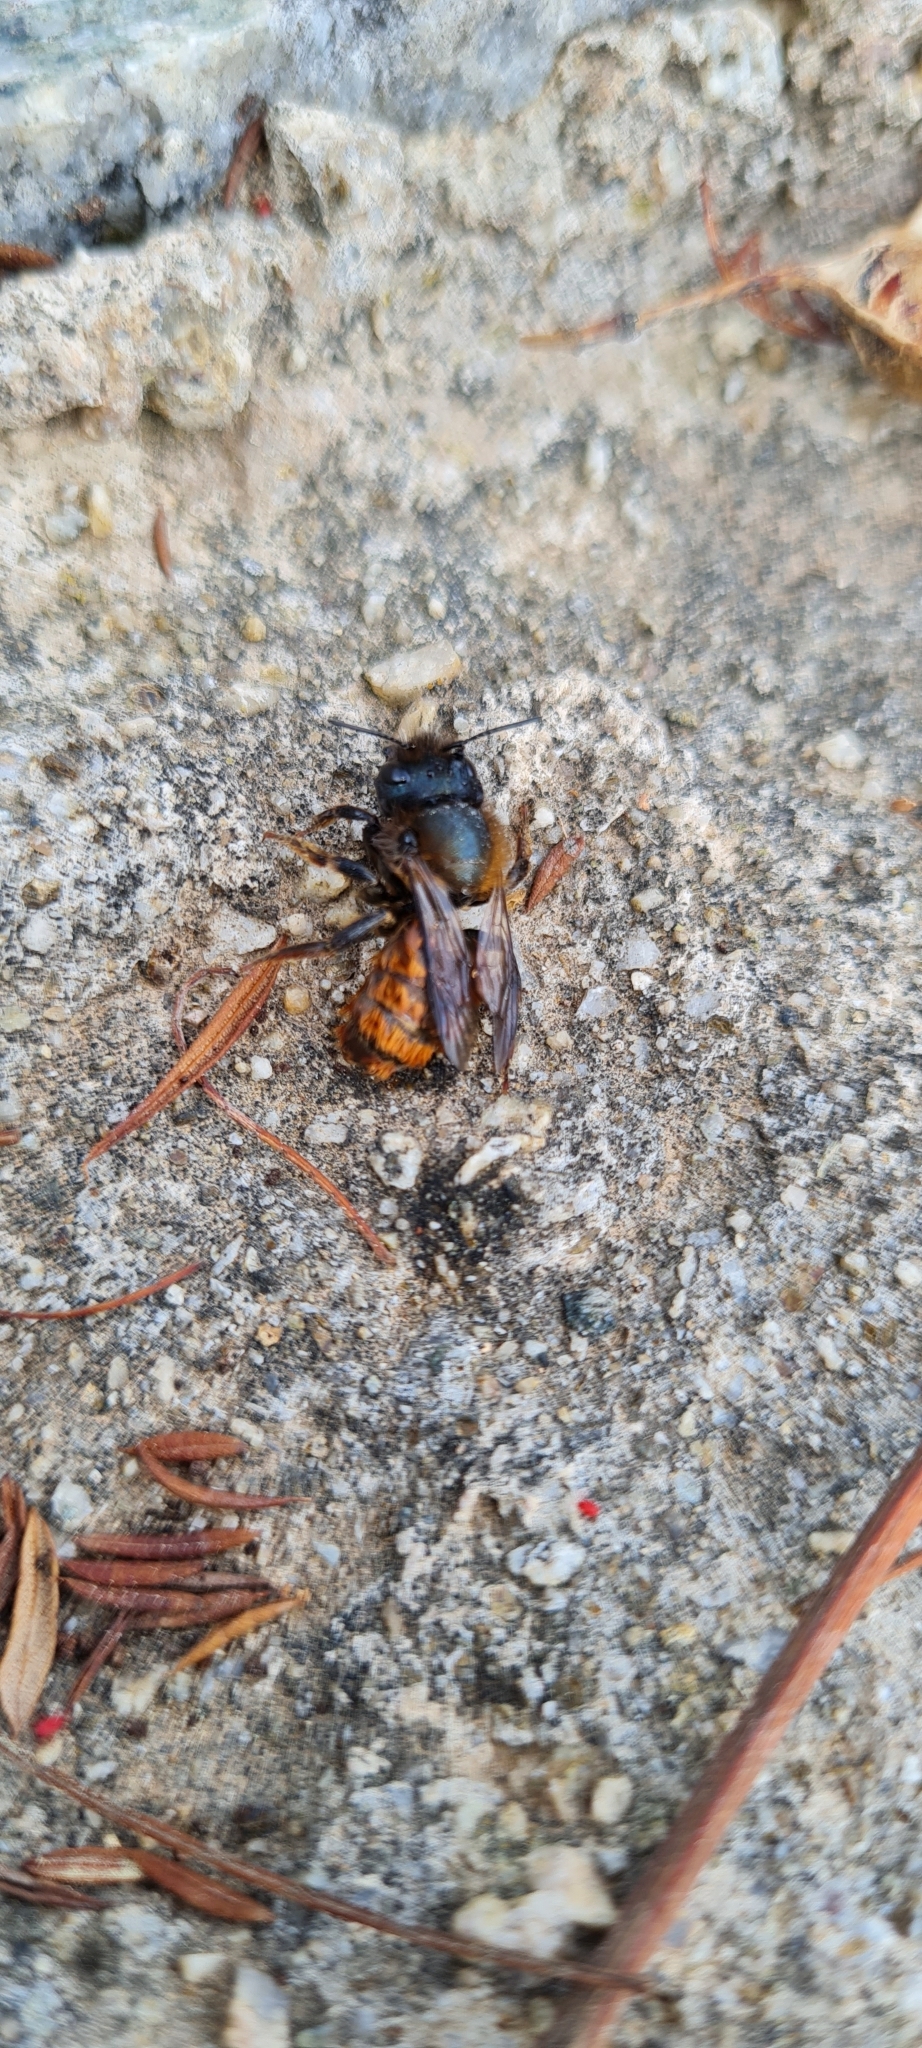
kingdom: Animalia
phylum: Arthropoda
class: Insecta
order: Hymenoptera
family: Megachilidae
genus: Osmia
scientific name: Osmia cornuta
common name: Mason bee
